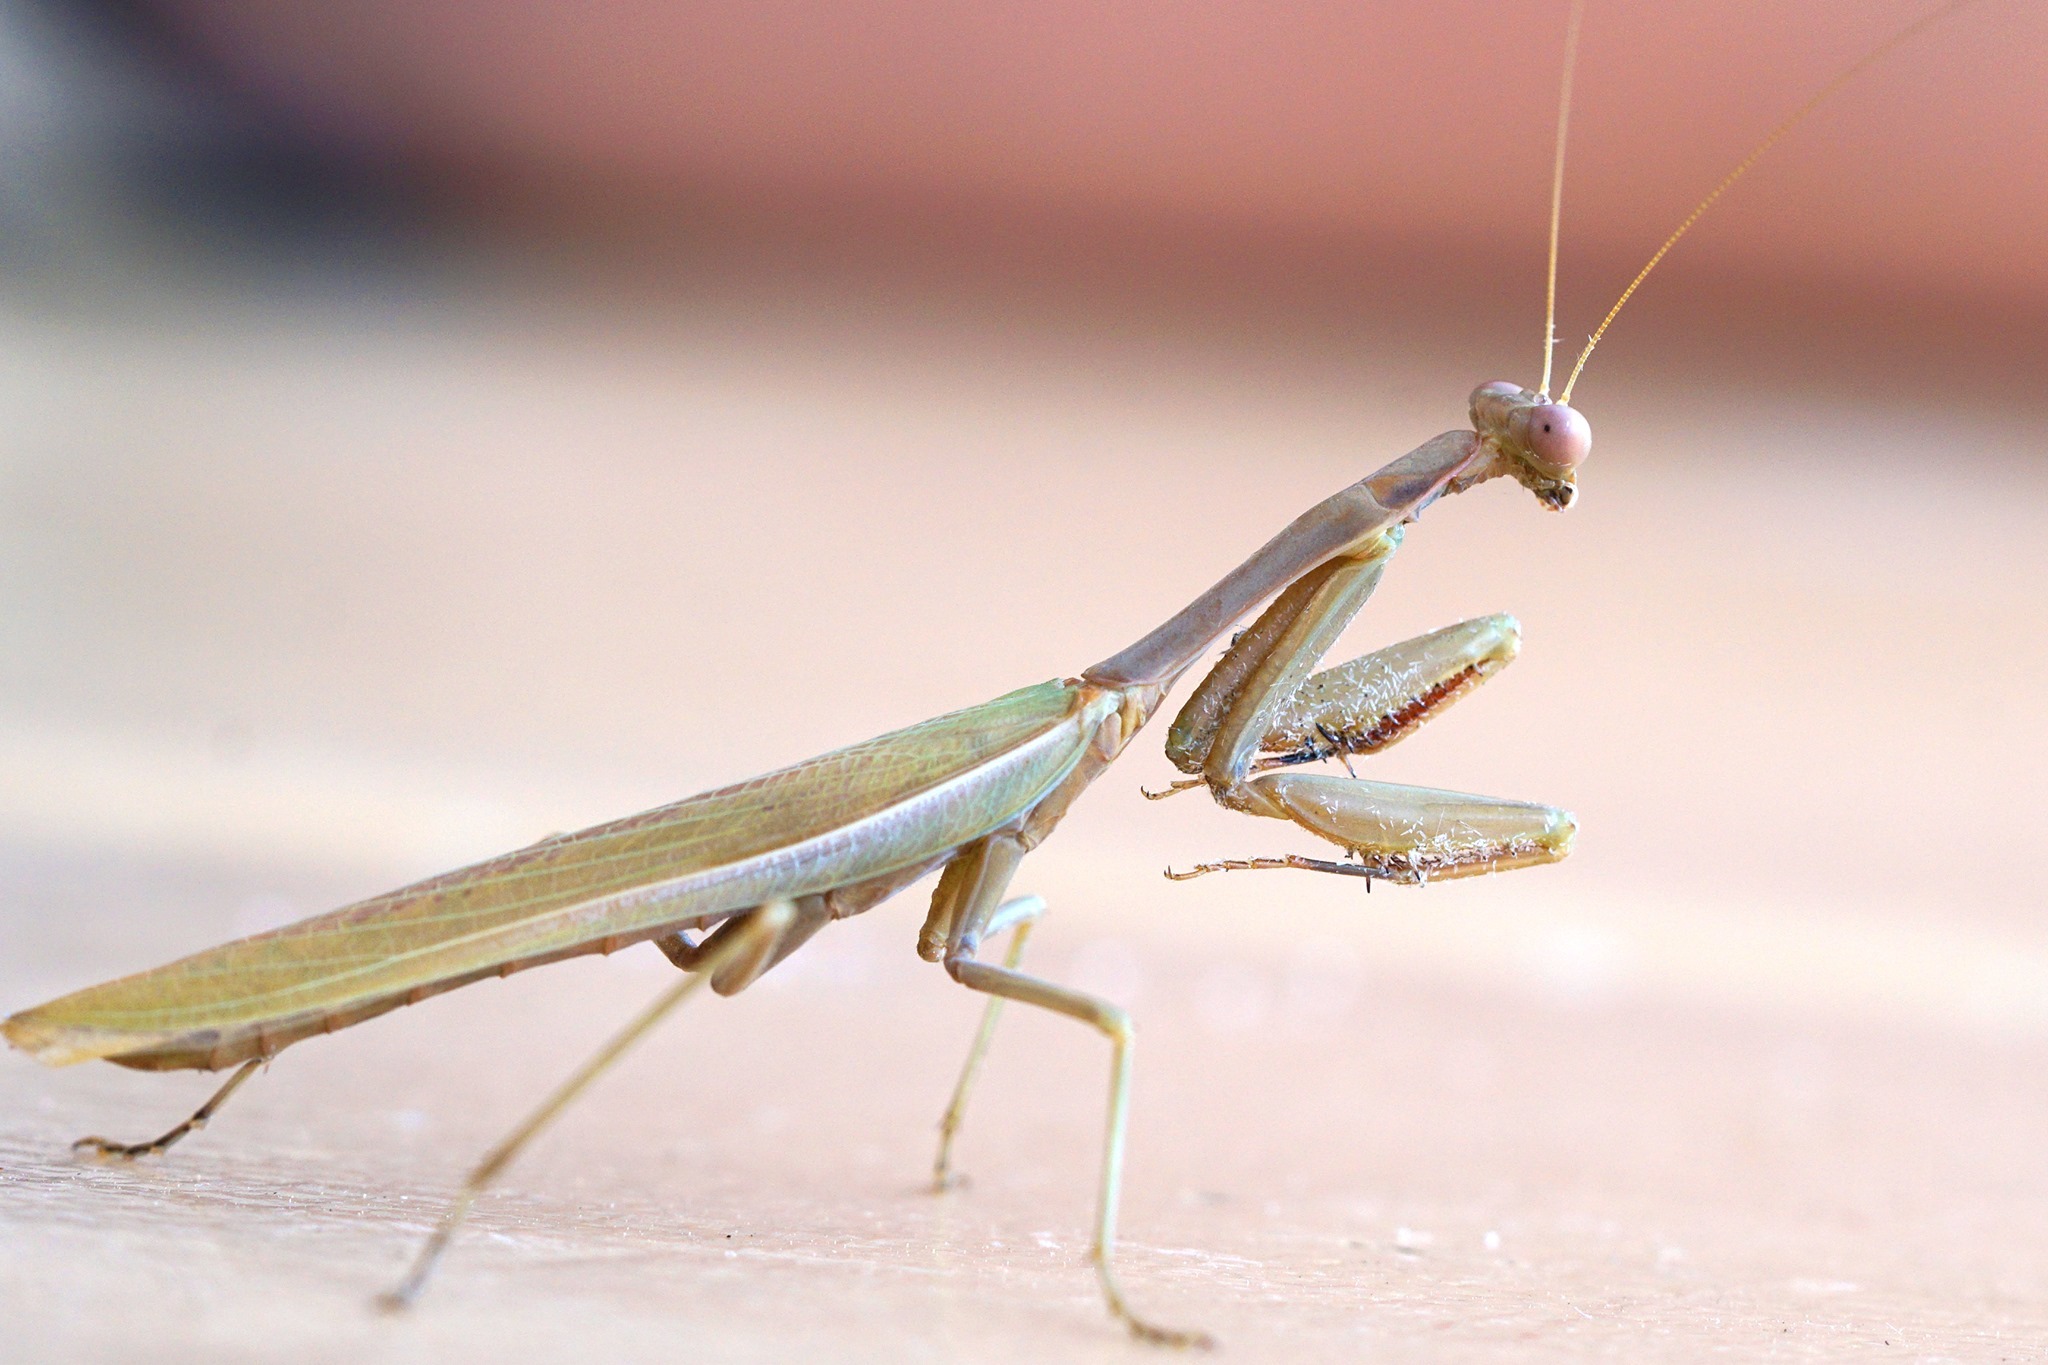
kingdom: Animalia
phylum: Arthropoda
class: Insecta
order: Mantodea
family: Eremiaphilidae
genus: Iris
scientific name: Iris oratoria
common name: Mediterranean mantis
